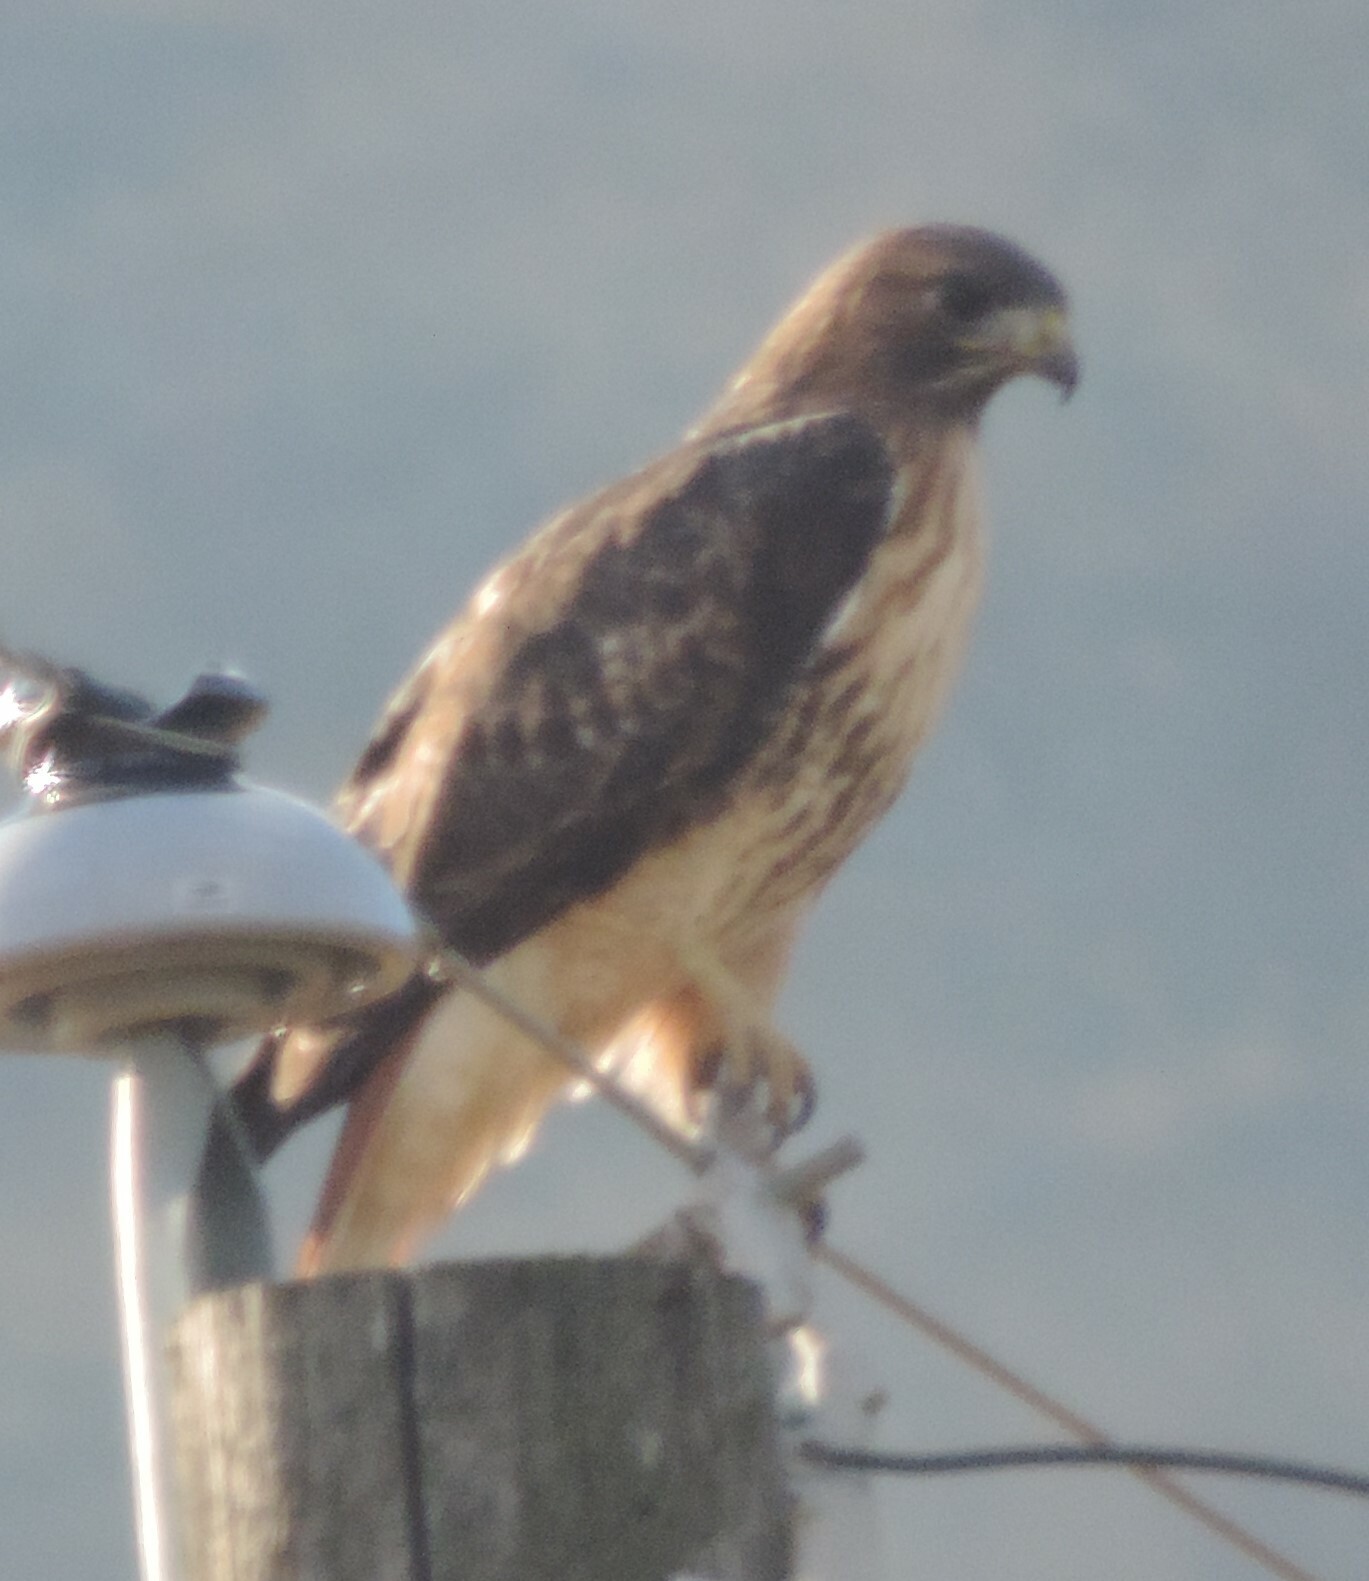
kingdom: Animalia
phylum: Chordata
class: Aves
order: Accipitriformes
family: Accipitridae
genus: Buteo
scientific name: Buteo jamaicensis
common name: Red-tailed hawk
